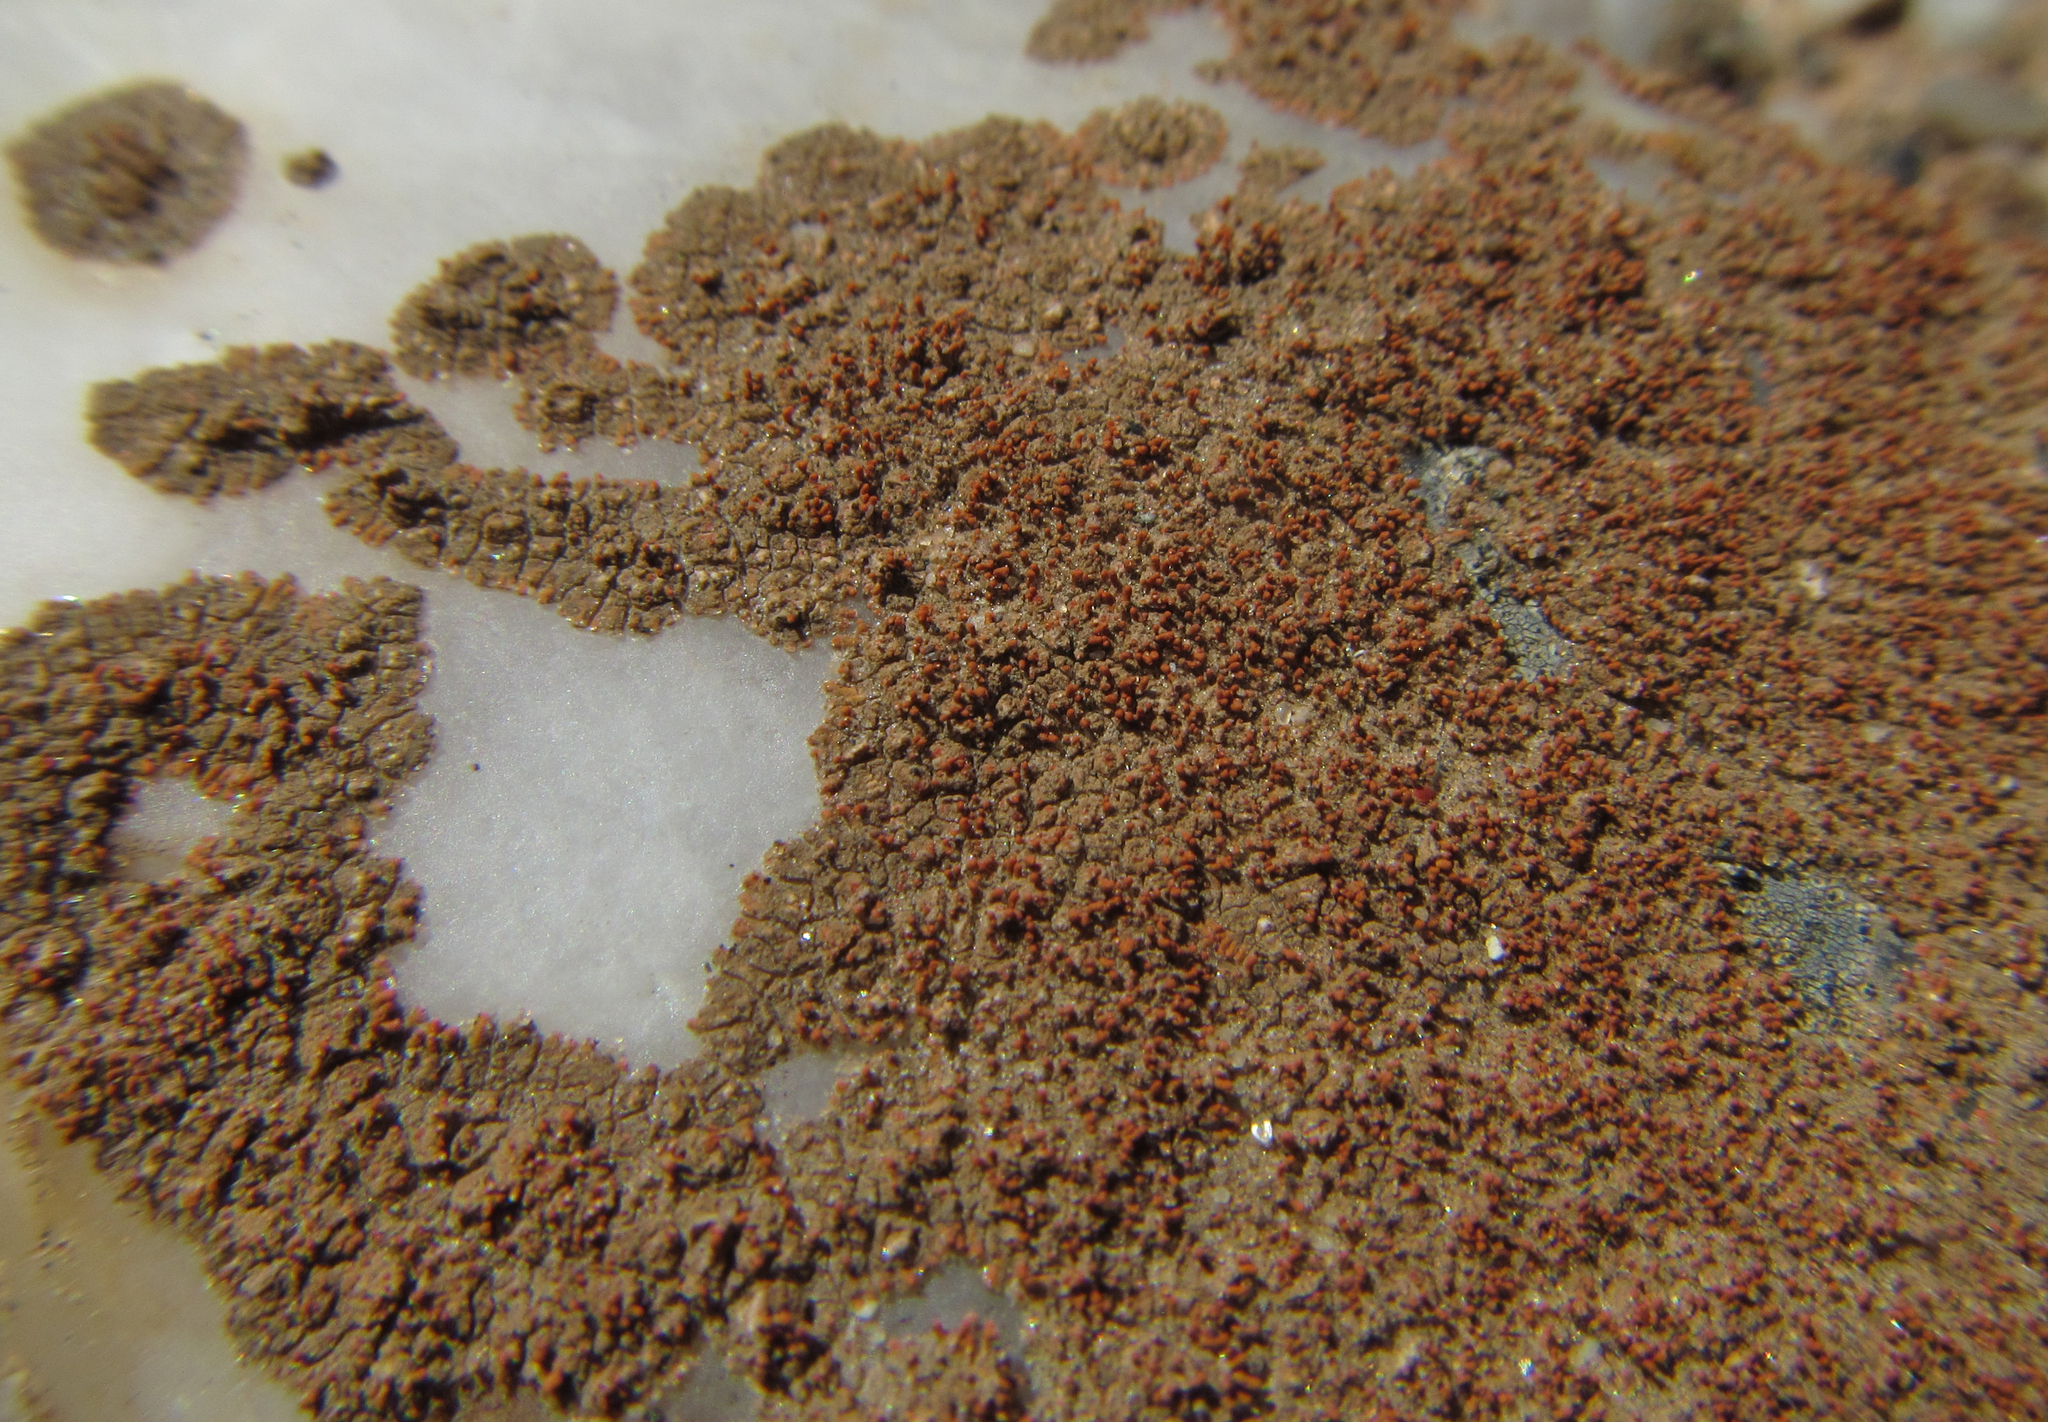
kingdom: Fungi
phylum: Ascomycota
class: Lecanoromycetes
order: Teloschistales
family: Teloschistaceae
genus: Stellarangia
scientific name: Stellarangia testudinea
